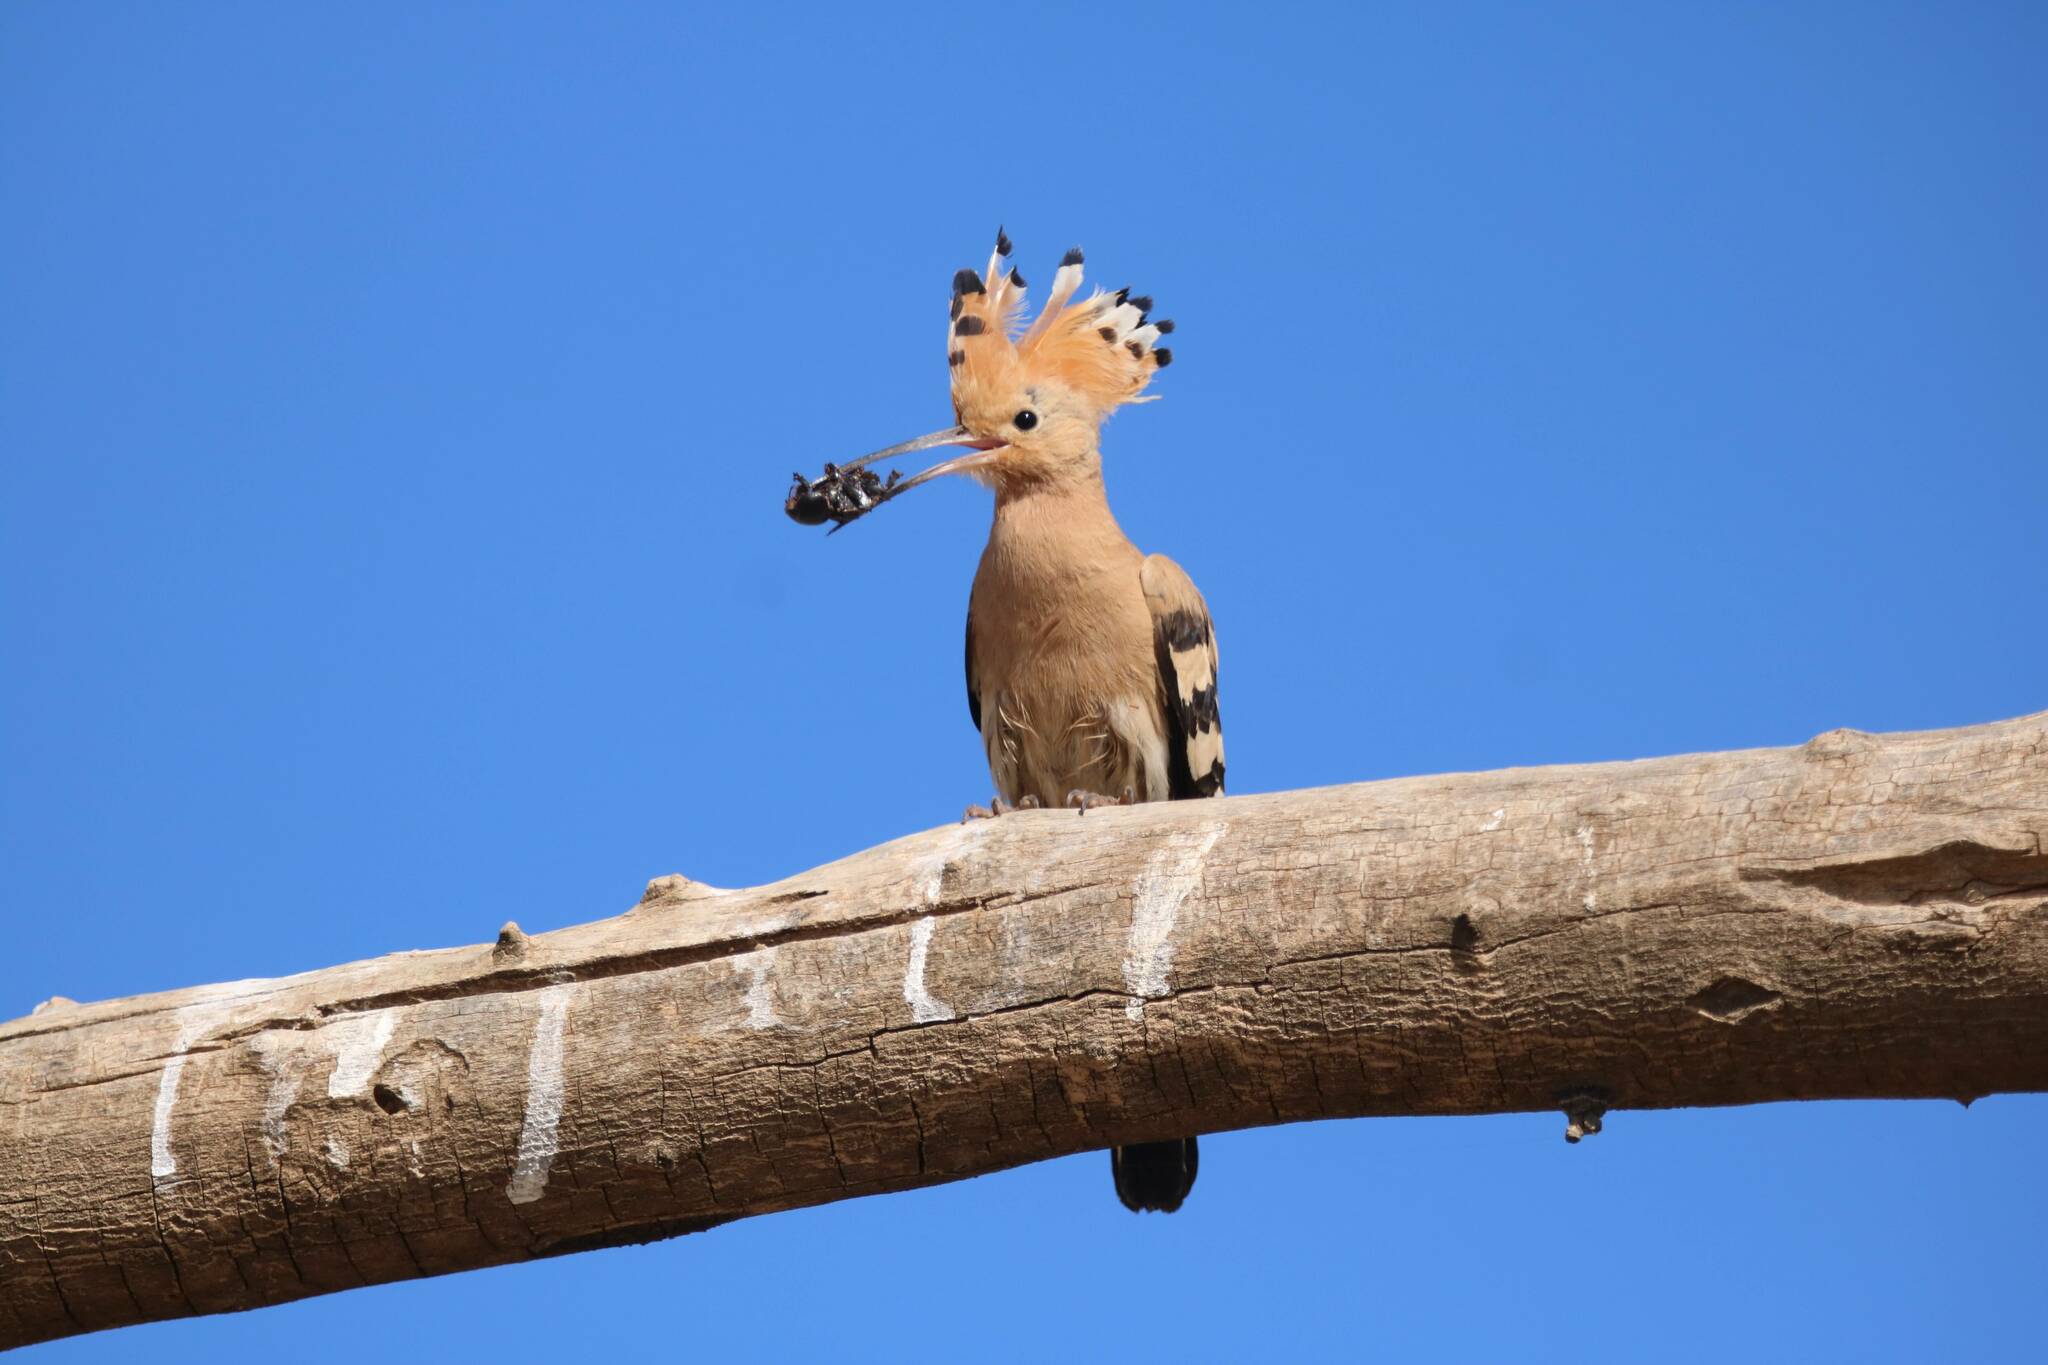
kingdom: Animalia
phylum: Chordata
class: Aves
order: Bucerotiformes
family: Upupidae
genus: Upupa
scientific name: Upupa epops
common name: Eurasian hoopoe
